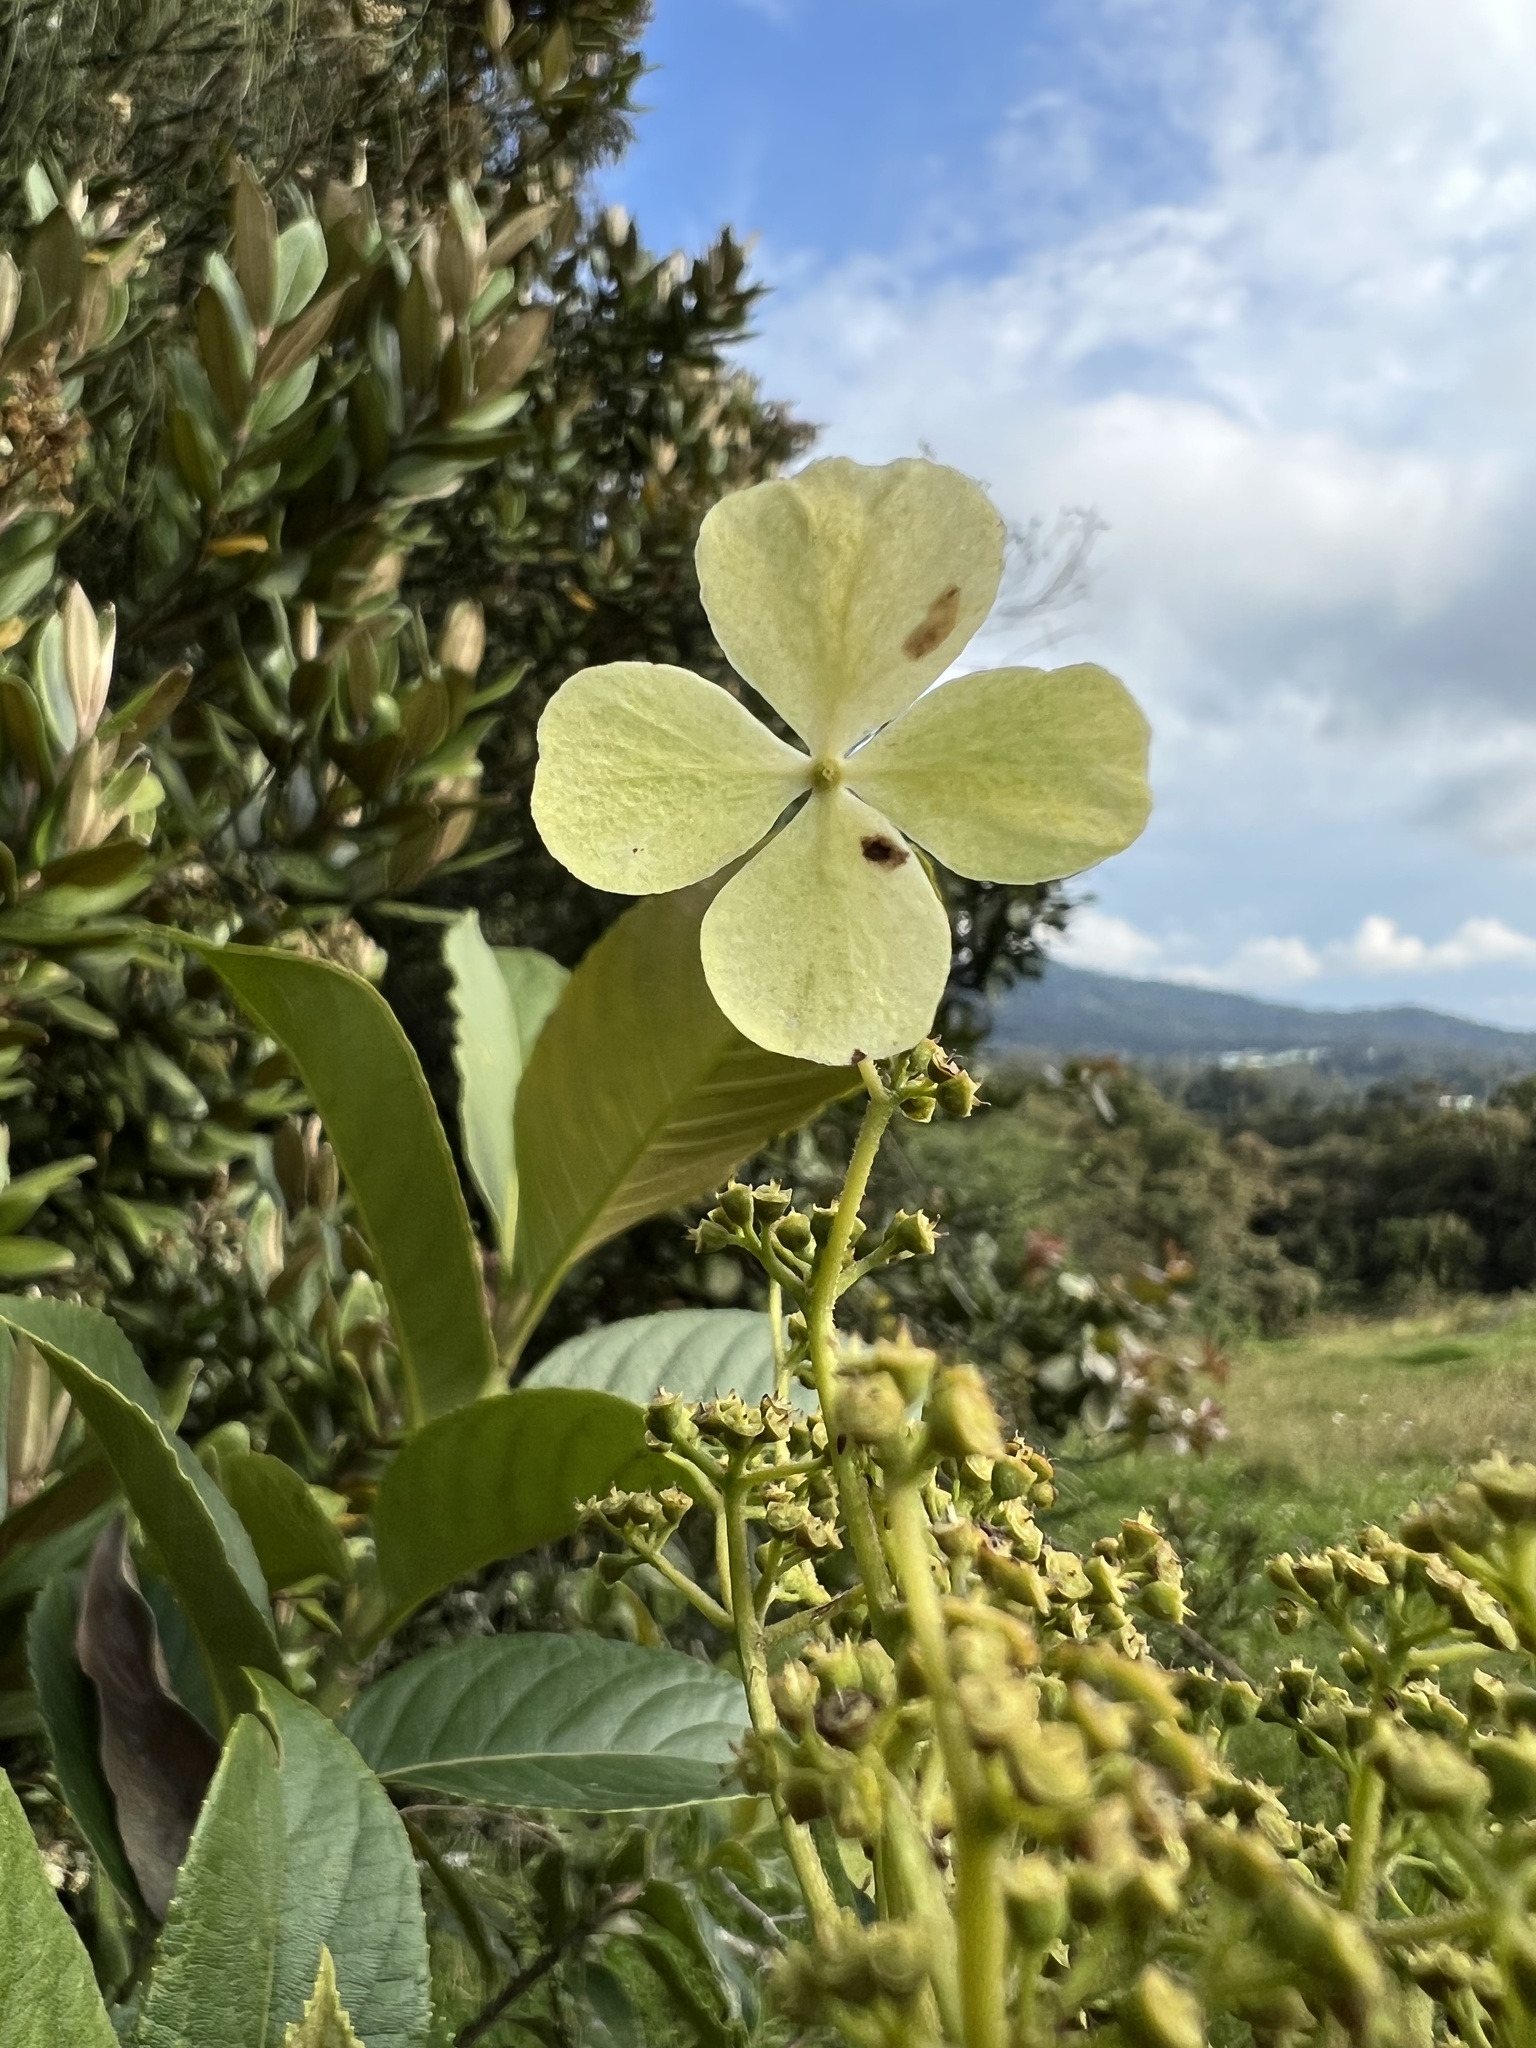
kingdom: Plantae
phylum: Tracheophyta
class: Magnoliopsida
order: Cornales
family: Hydrangeaceae
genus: Hydrangea
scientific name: Hydrangea peruviana
